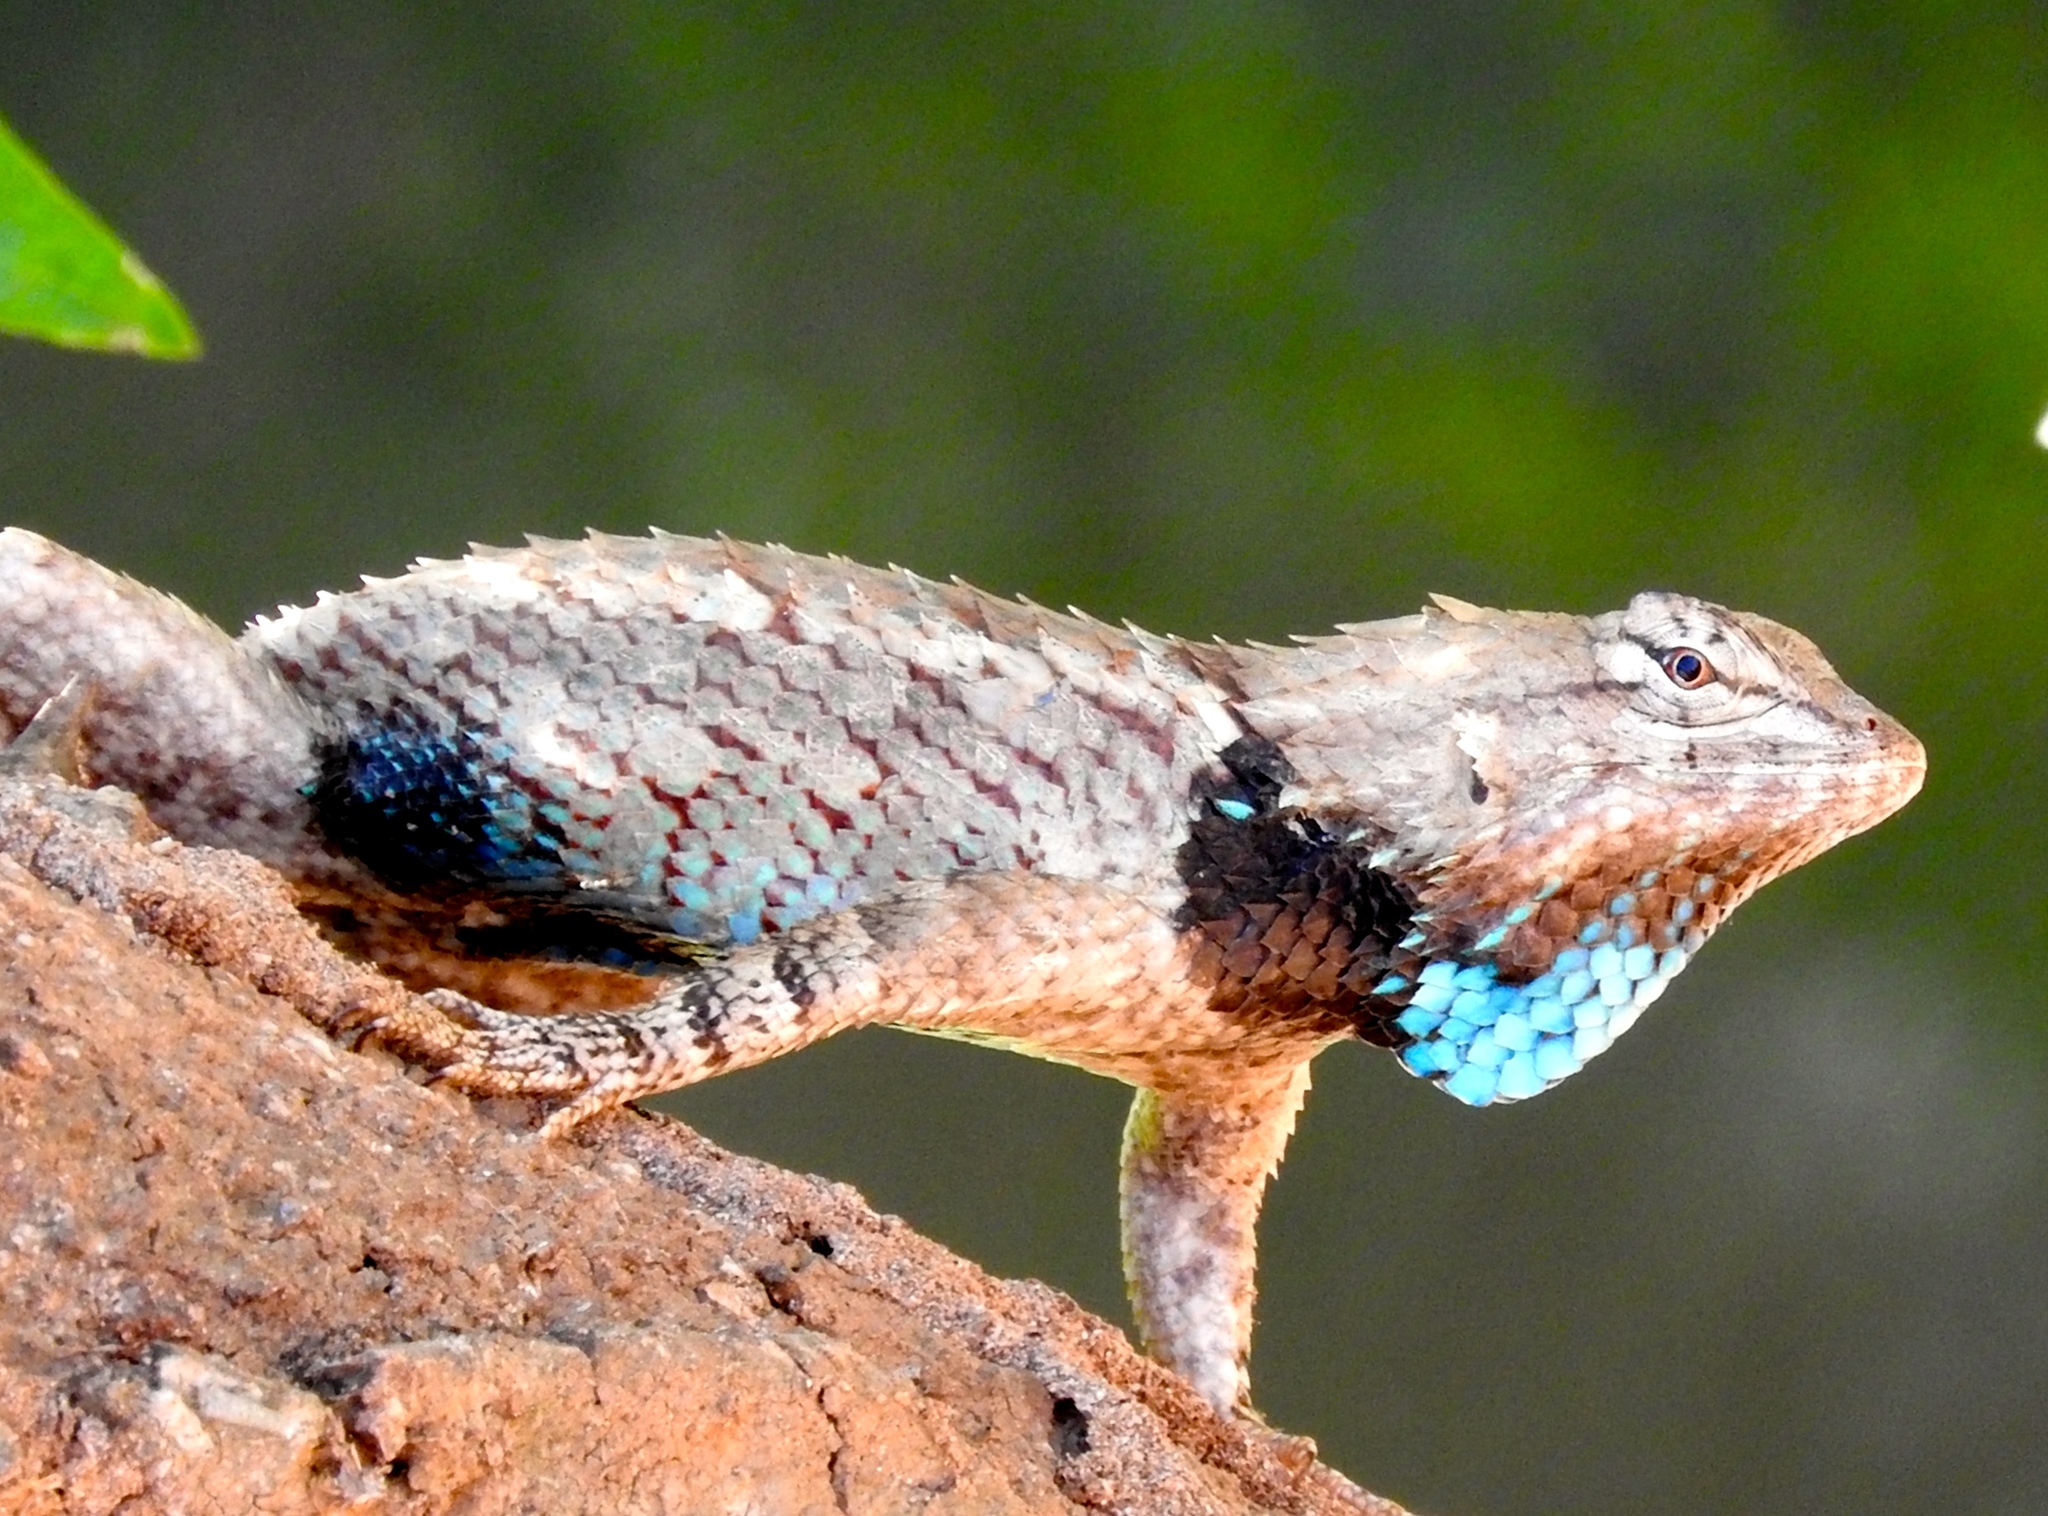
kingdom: Animalia
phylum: Chordata
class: Squamata
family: Phrynosomatidae
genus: Sceloporus
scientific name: Sceloporus clarkii
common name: Clark's spiny lizard
